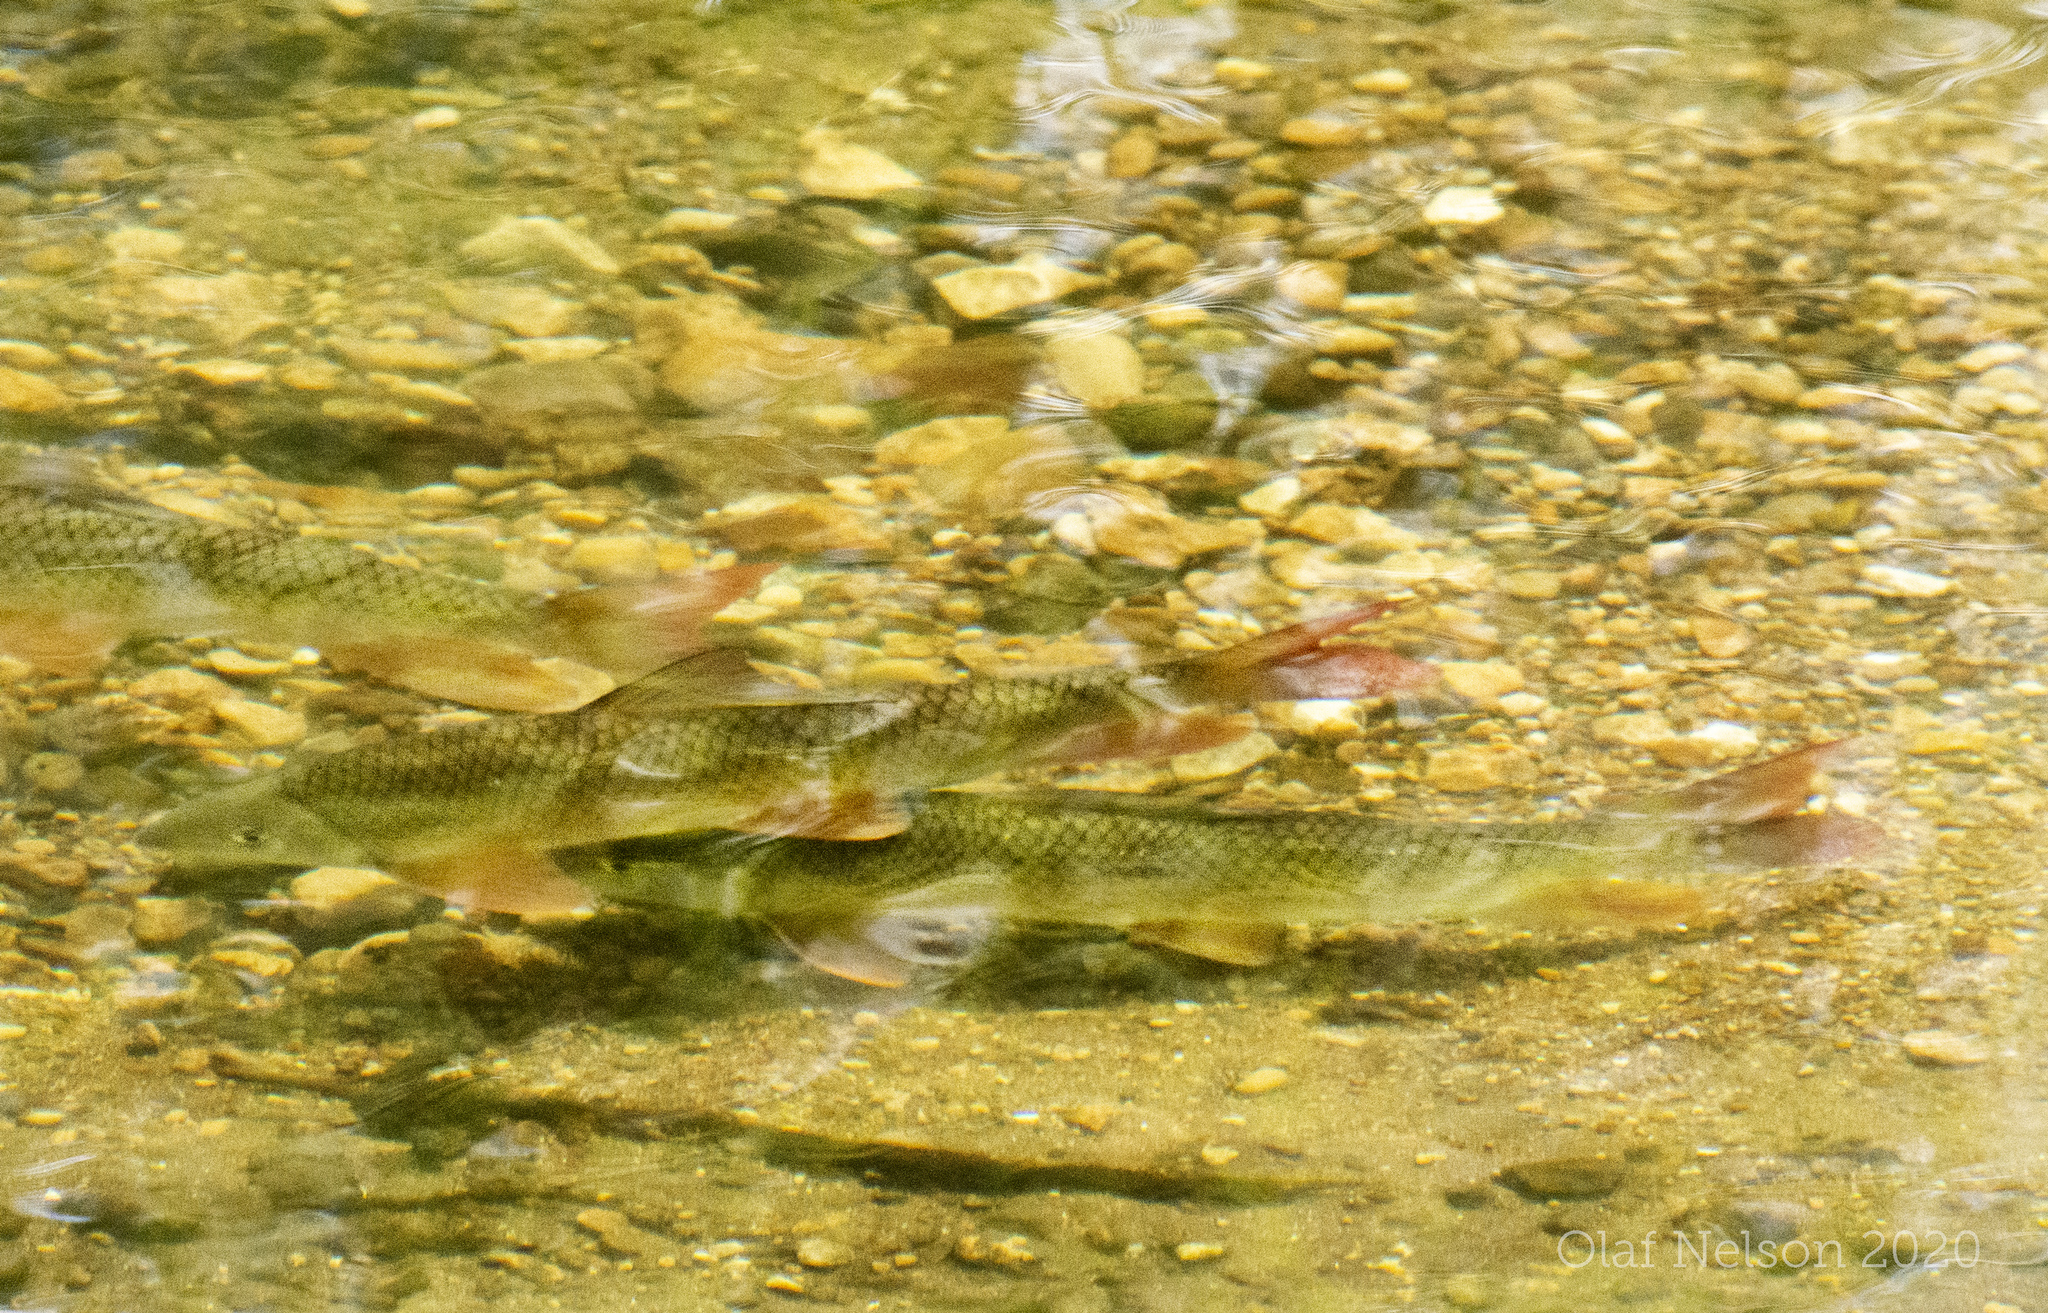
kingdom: Animalia
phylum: Chordata
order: Cypriniformes
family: Catostomidae
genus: Moxostoma
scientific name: Moxostoma macrolepidotum
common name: Shorthead redhorse
